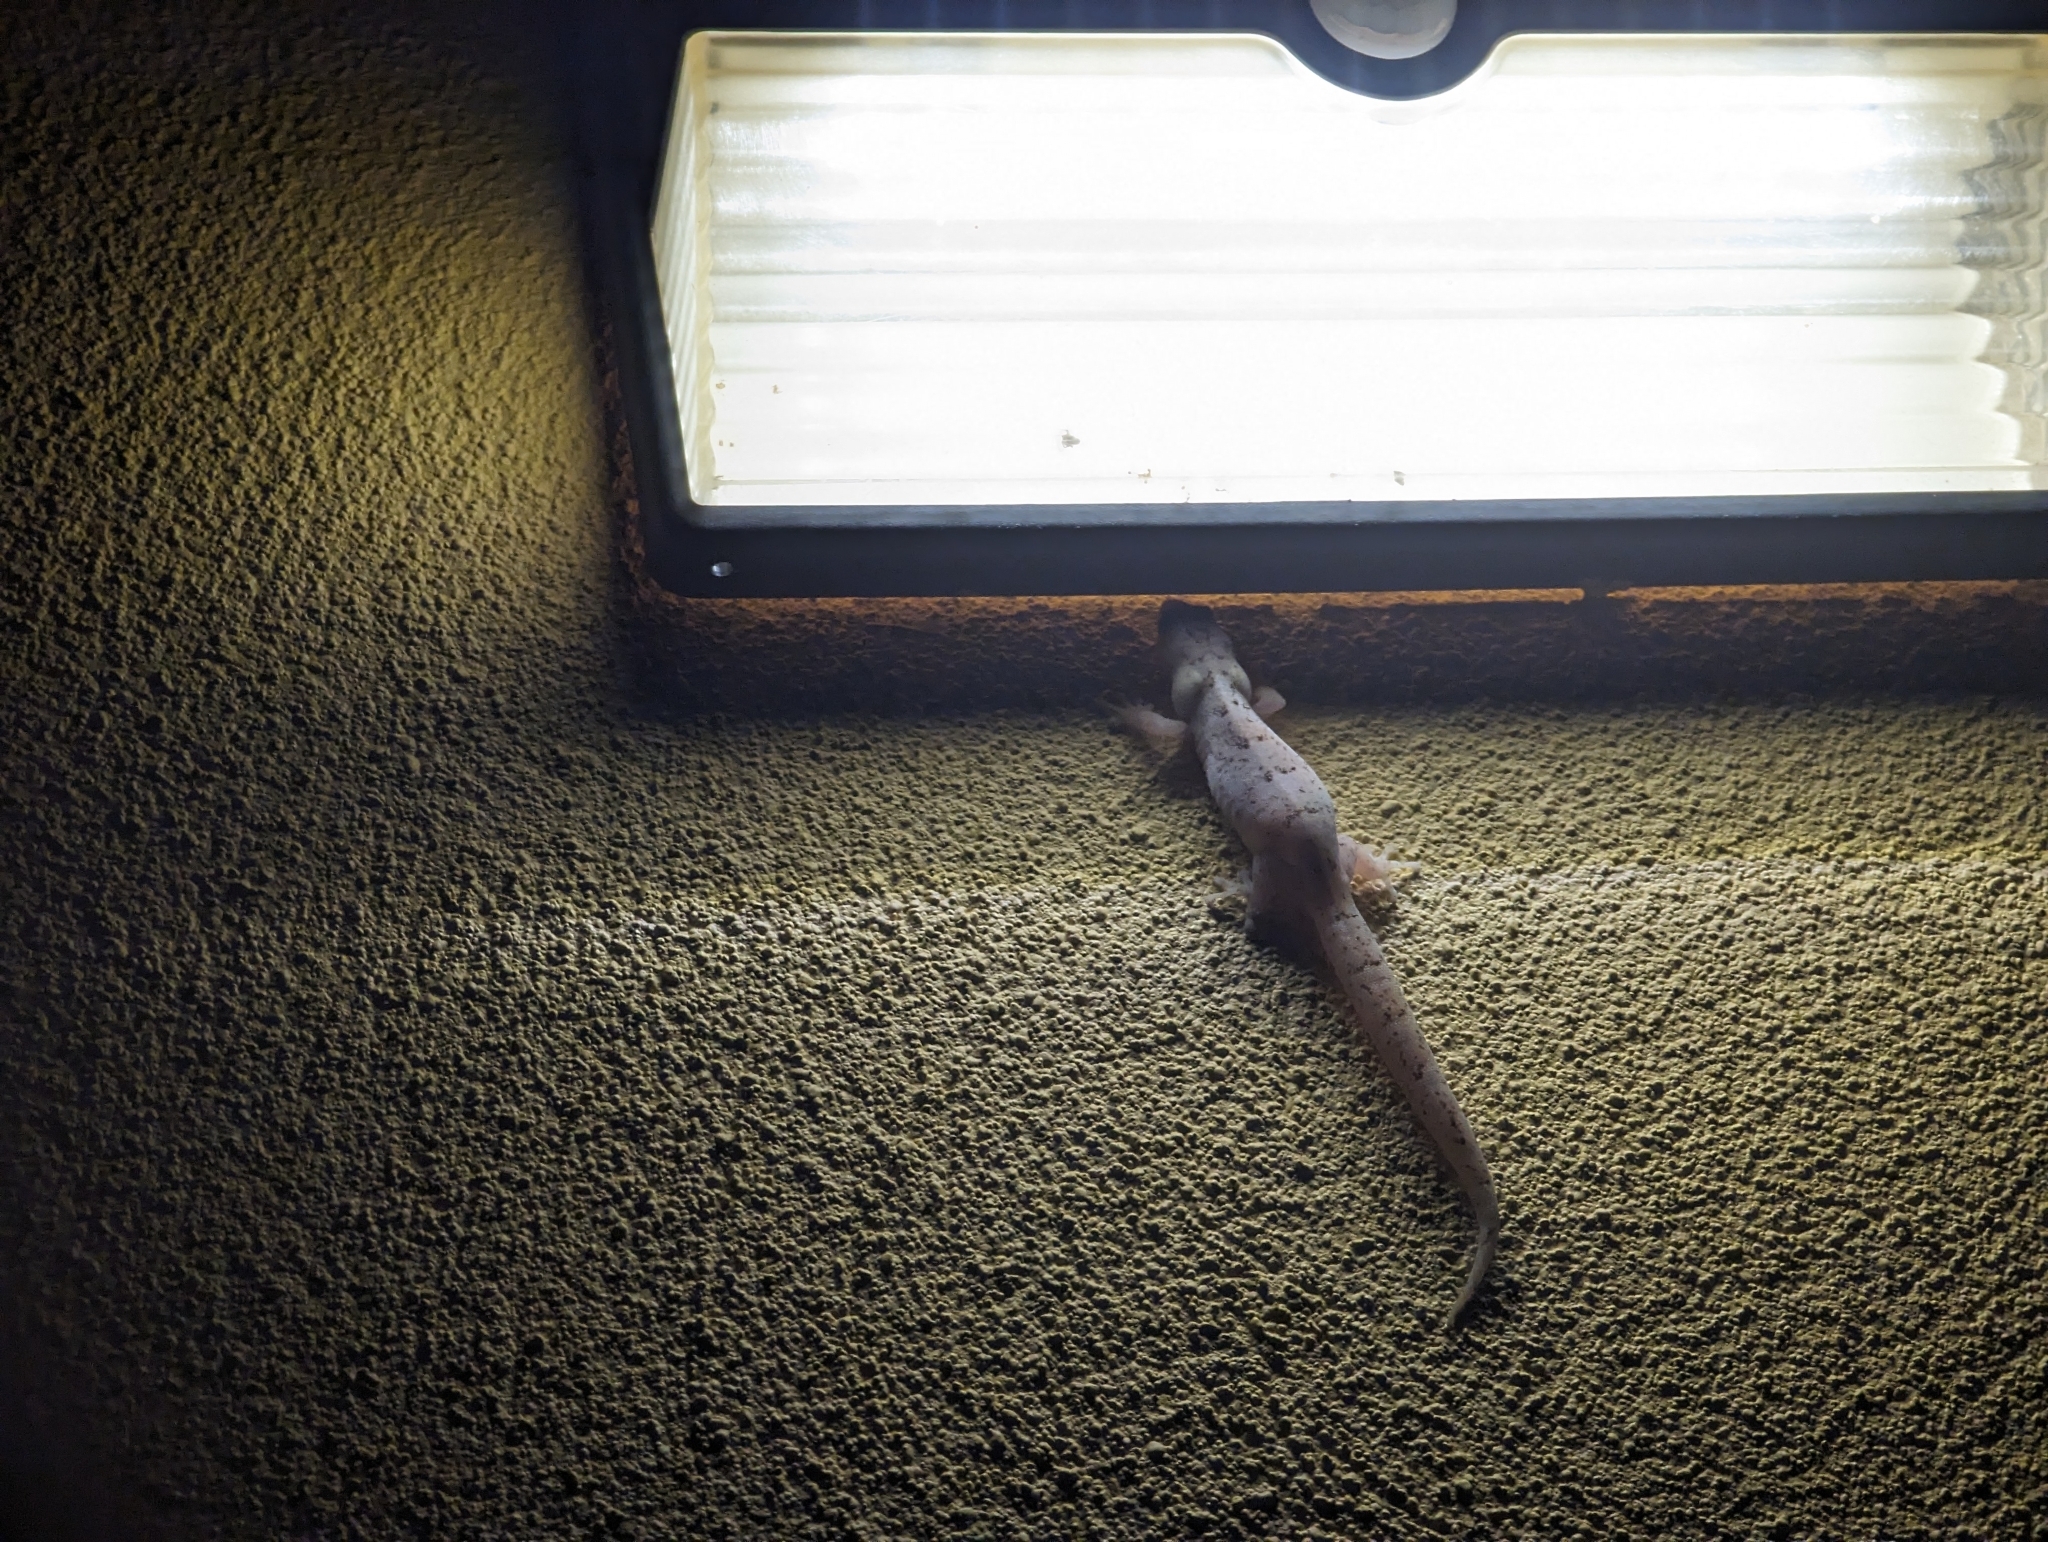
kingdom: Animalia
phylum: Chordata
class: Squamata
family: Gekkonidae
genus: Christinus
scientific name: Christinus marmoratus
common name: Marbled gecko
